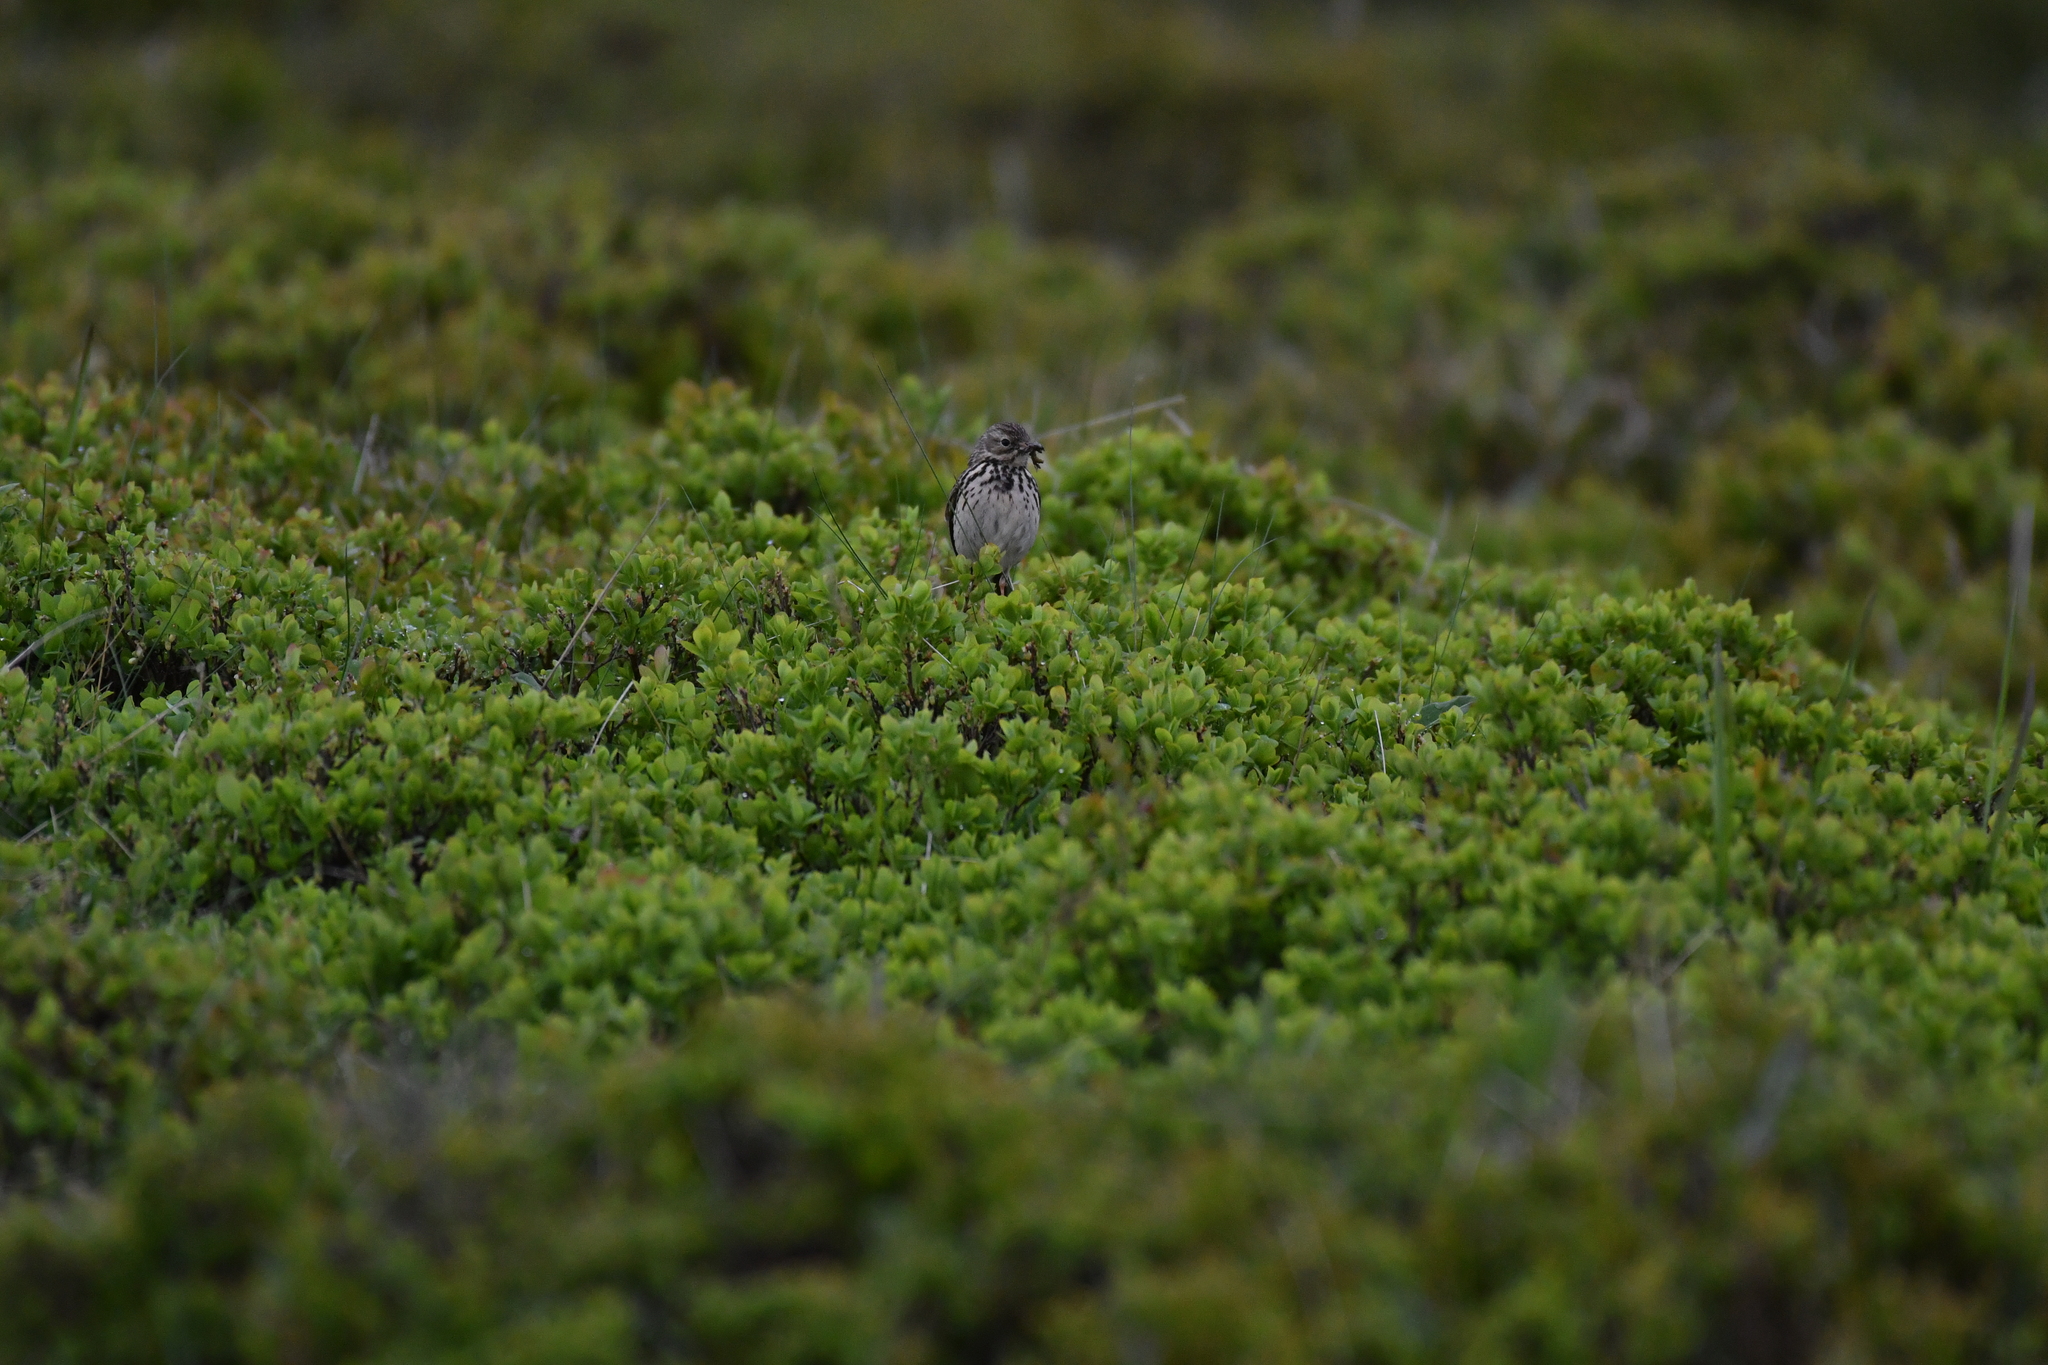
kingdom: Animalia
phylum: Chordata
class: Aves
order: Passeriformes
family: Motacillidae
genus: Anthus
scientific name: Anthus pratensis
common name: Meadow pipit
